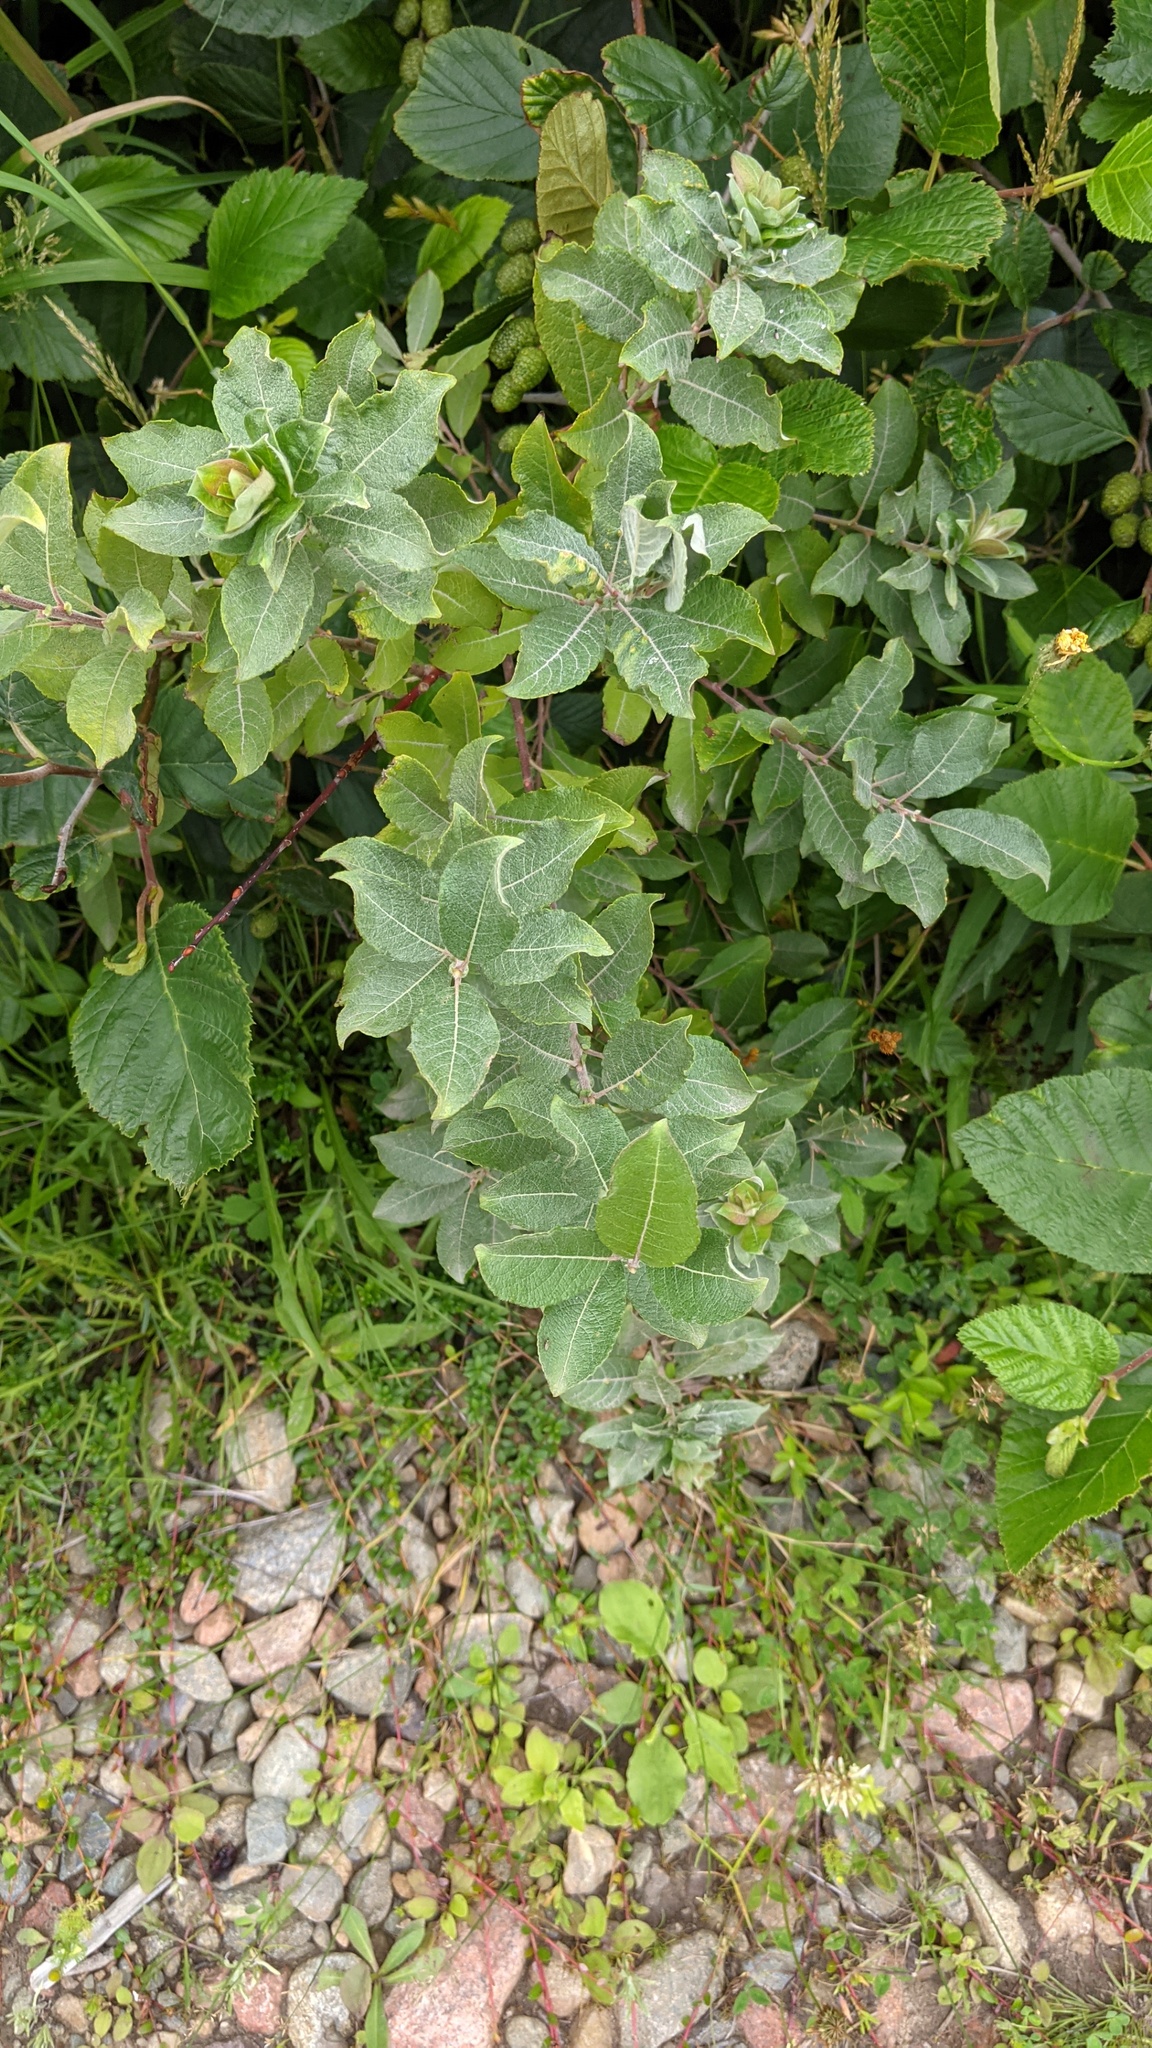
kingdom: Plantae
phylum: Tracheophyta
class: Magnoliopsida
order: Malpighiales
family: Salicaceae
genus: Salix
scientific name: Salix bebbiana
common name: Bebb's willow
